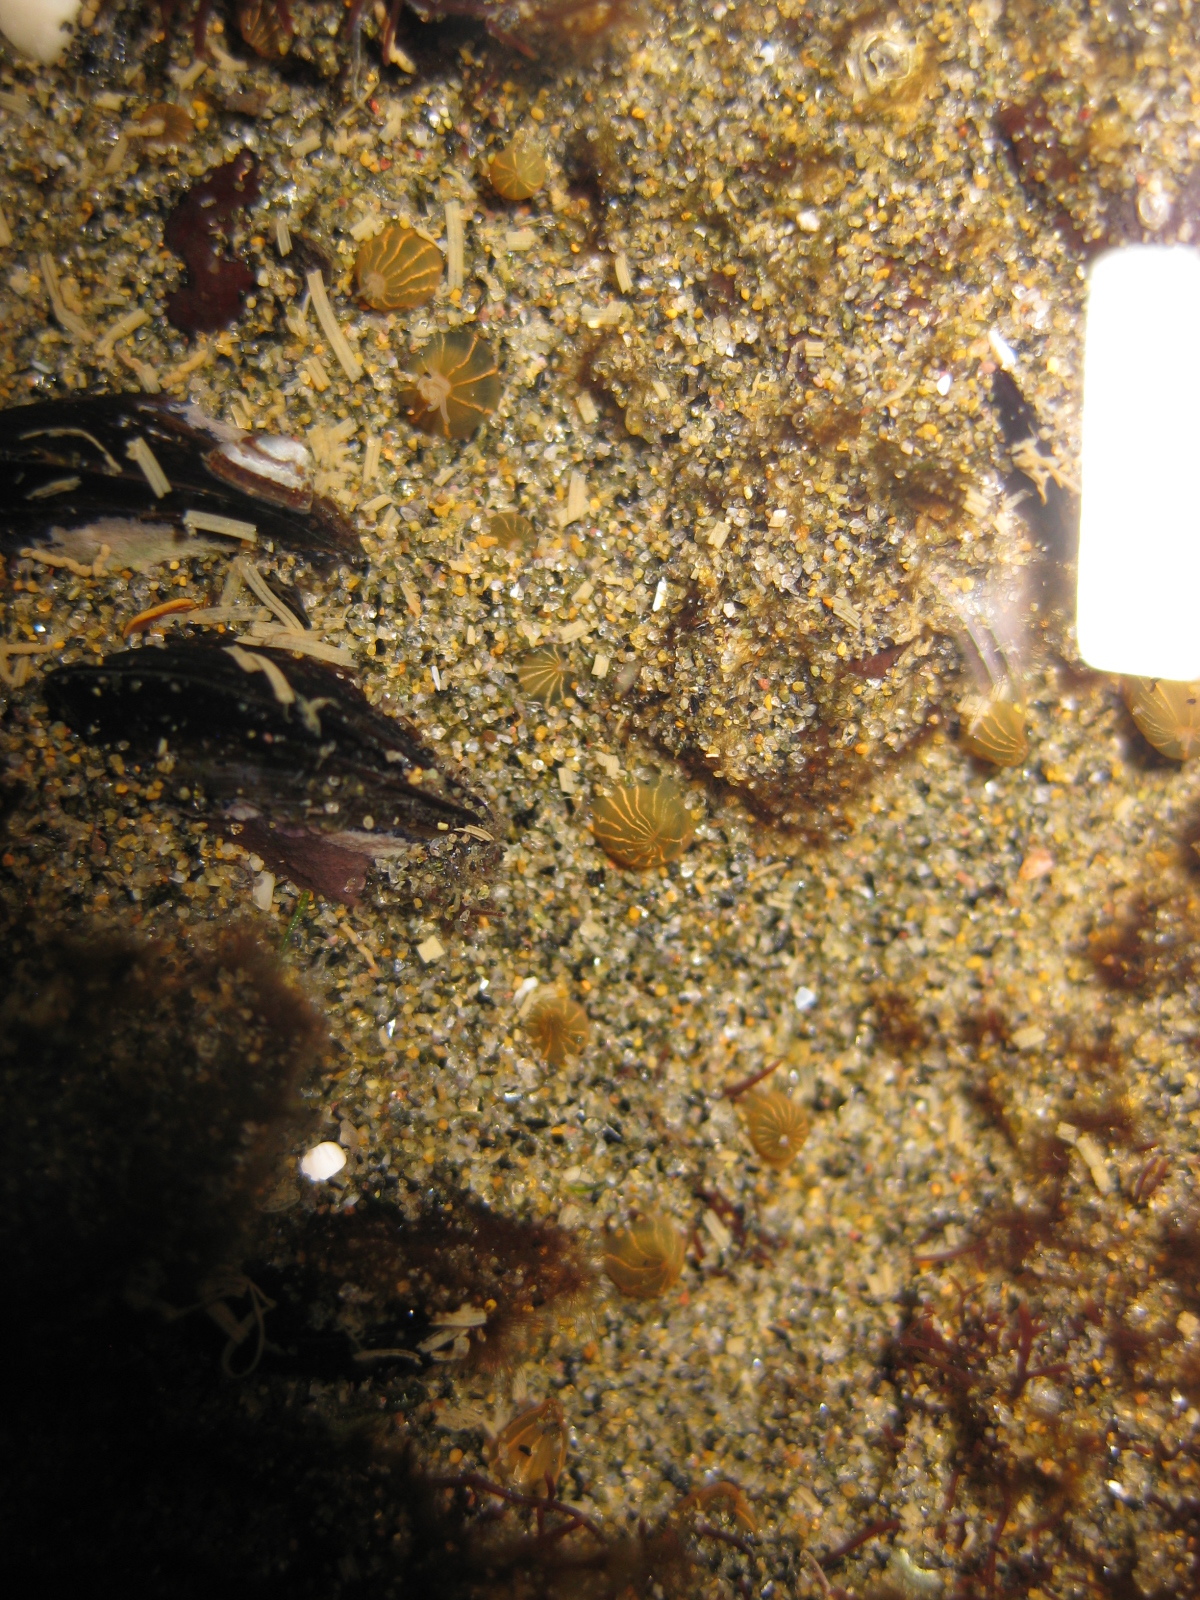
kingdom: Animalia
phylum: Cnidaria
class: Anthozoa
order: Actiniaria
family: Diadumenidae
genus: Diadumene
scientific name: Diadumene lineata
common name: Orange-striped anemone
